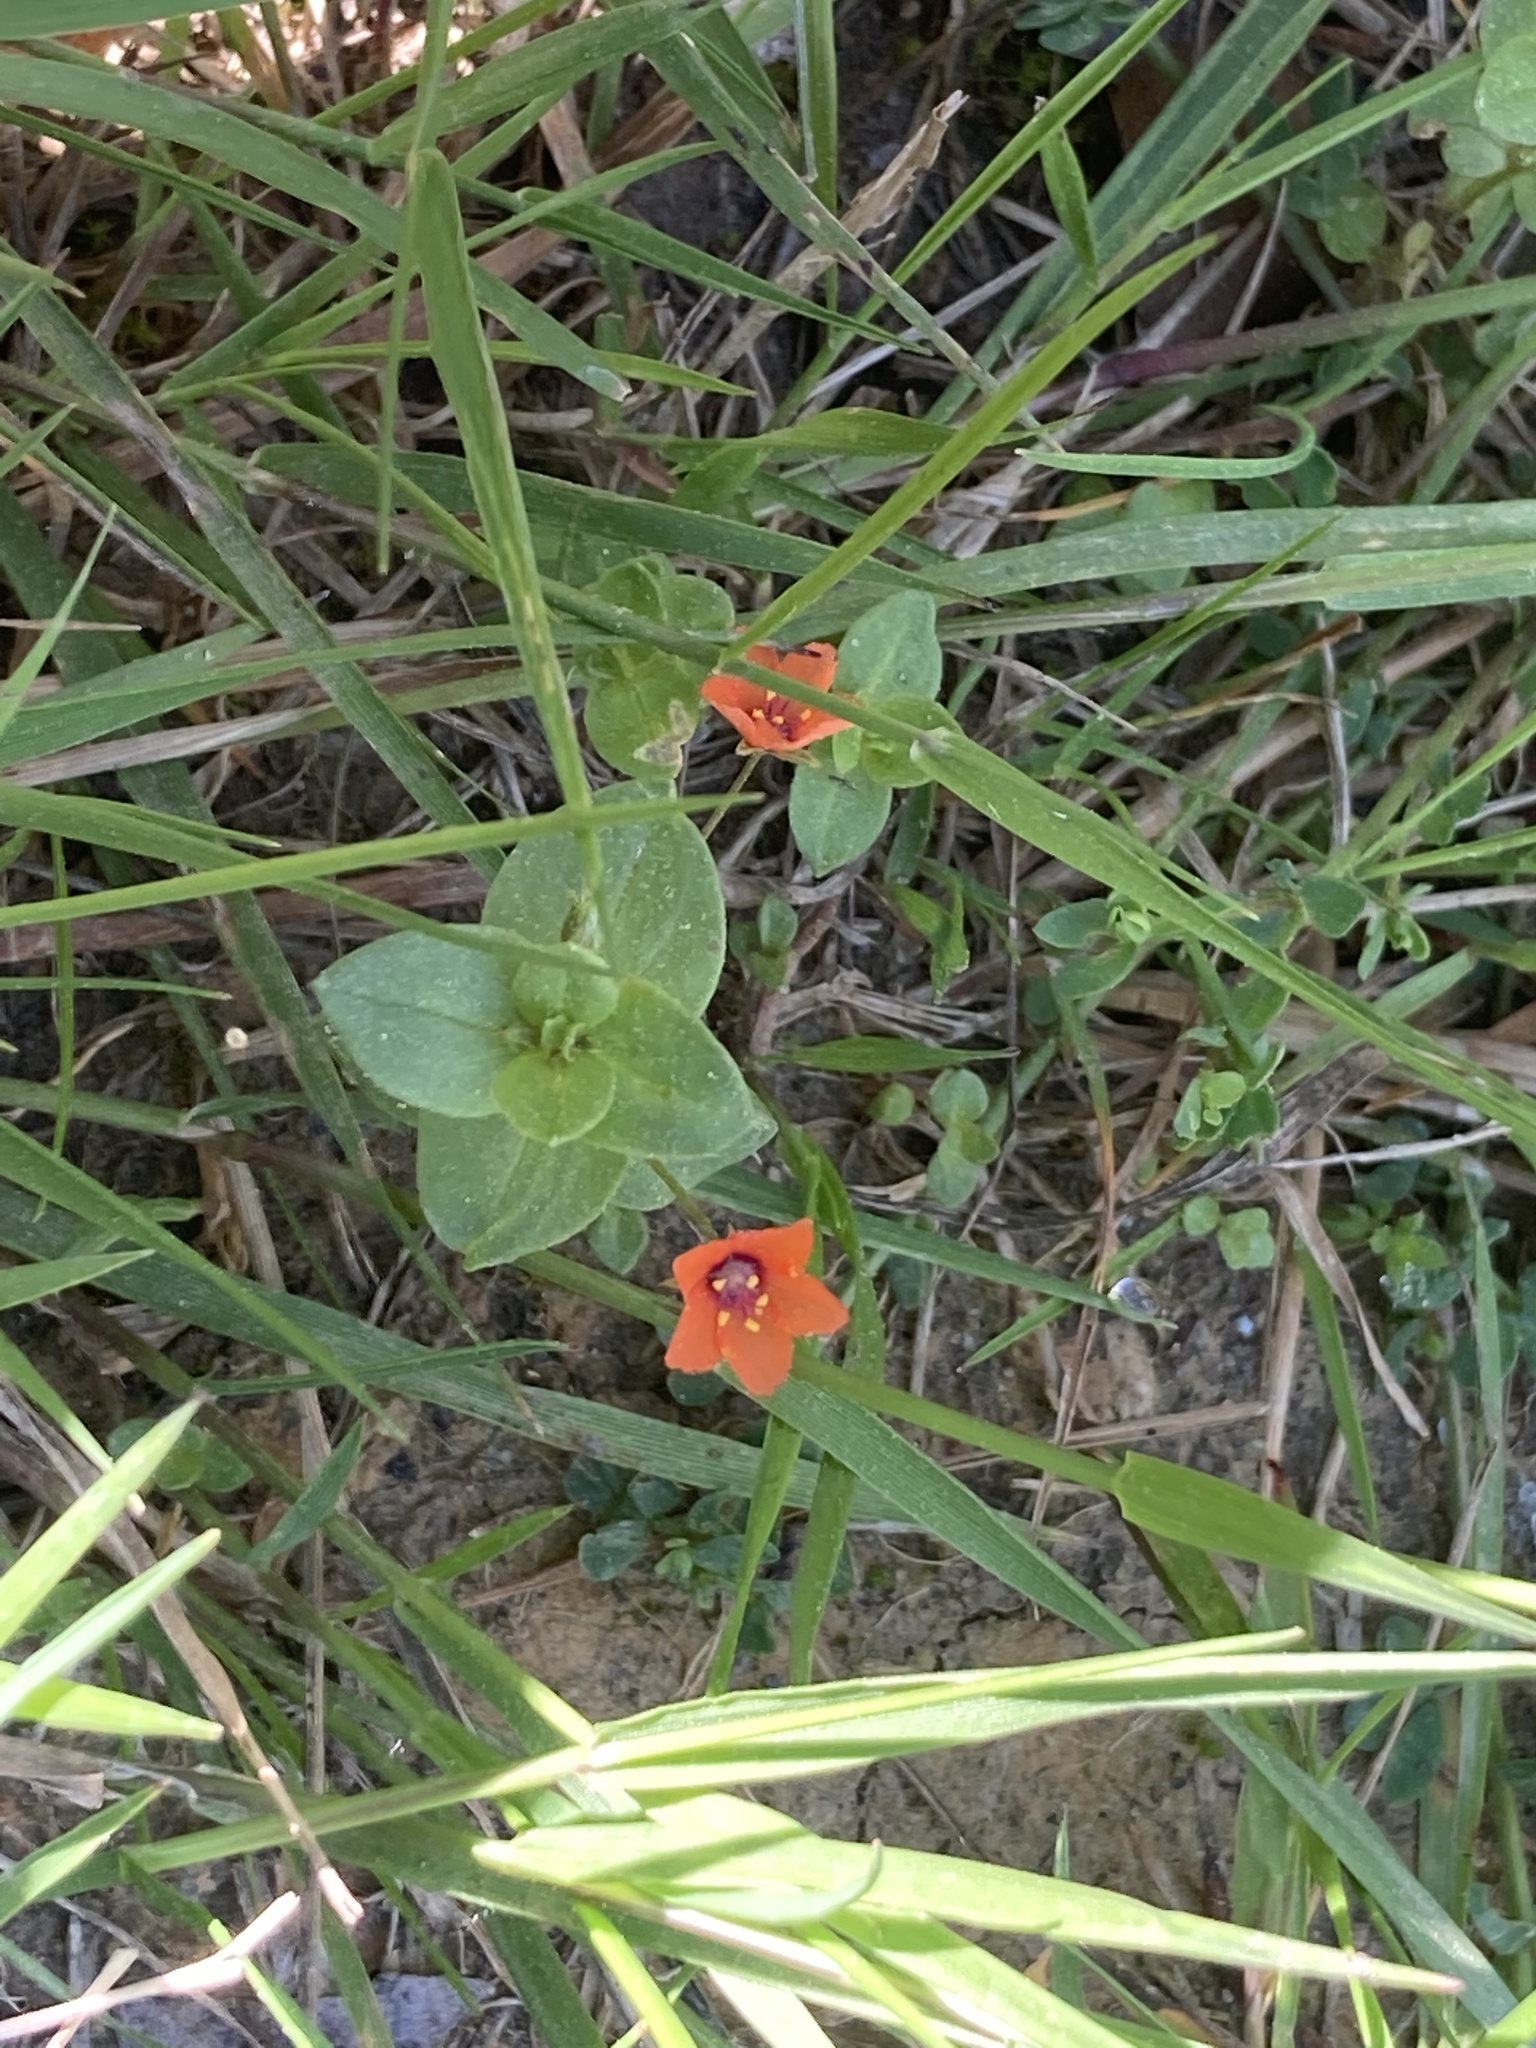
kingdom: Plantae
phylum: Tracheophyta
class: Magnoliopsida
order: Ericales
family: Primulaceae
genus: Lysimachia
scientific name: Lysimachia arvensis
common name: Scarlet pimpernel
